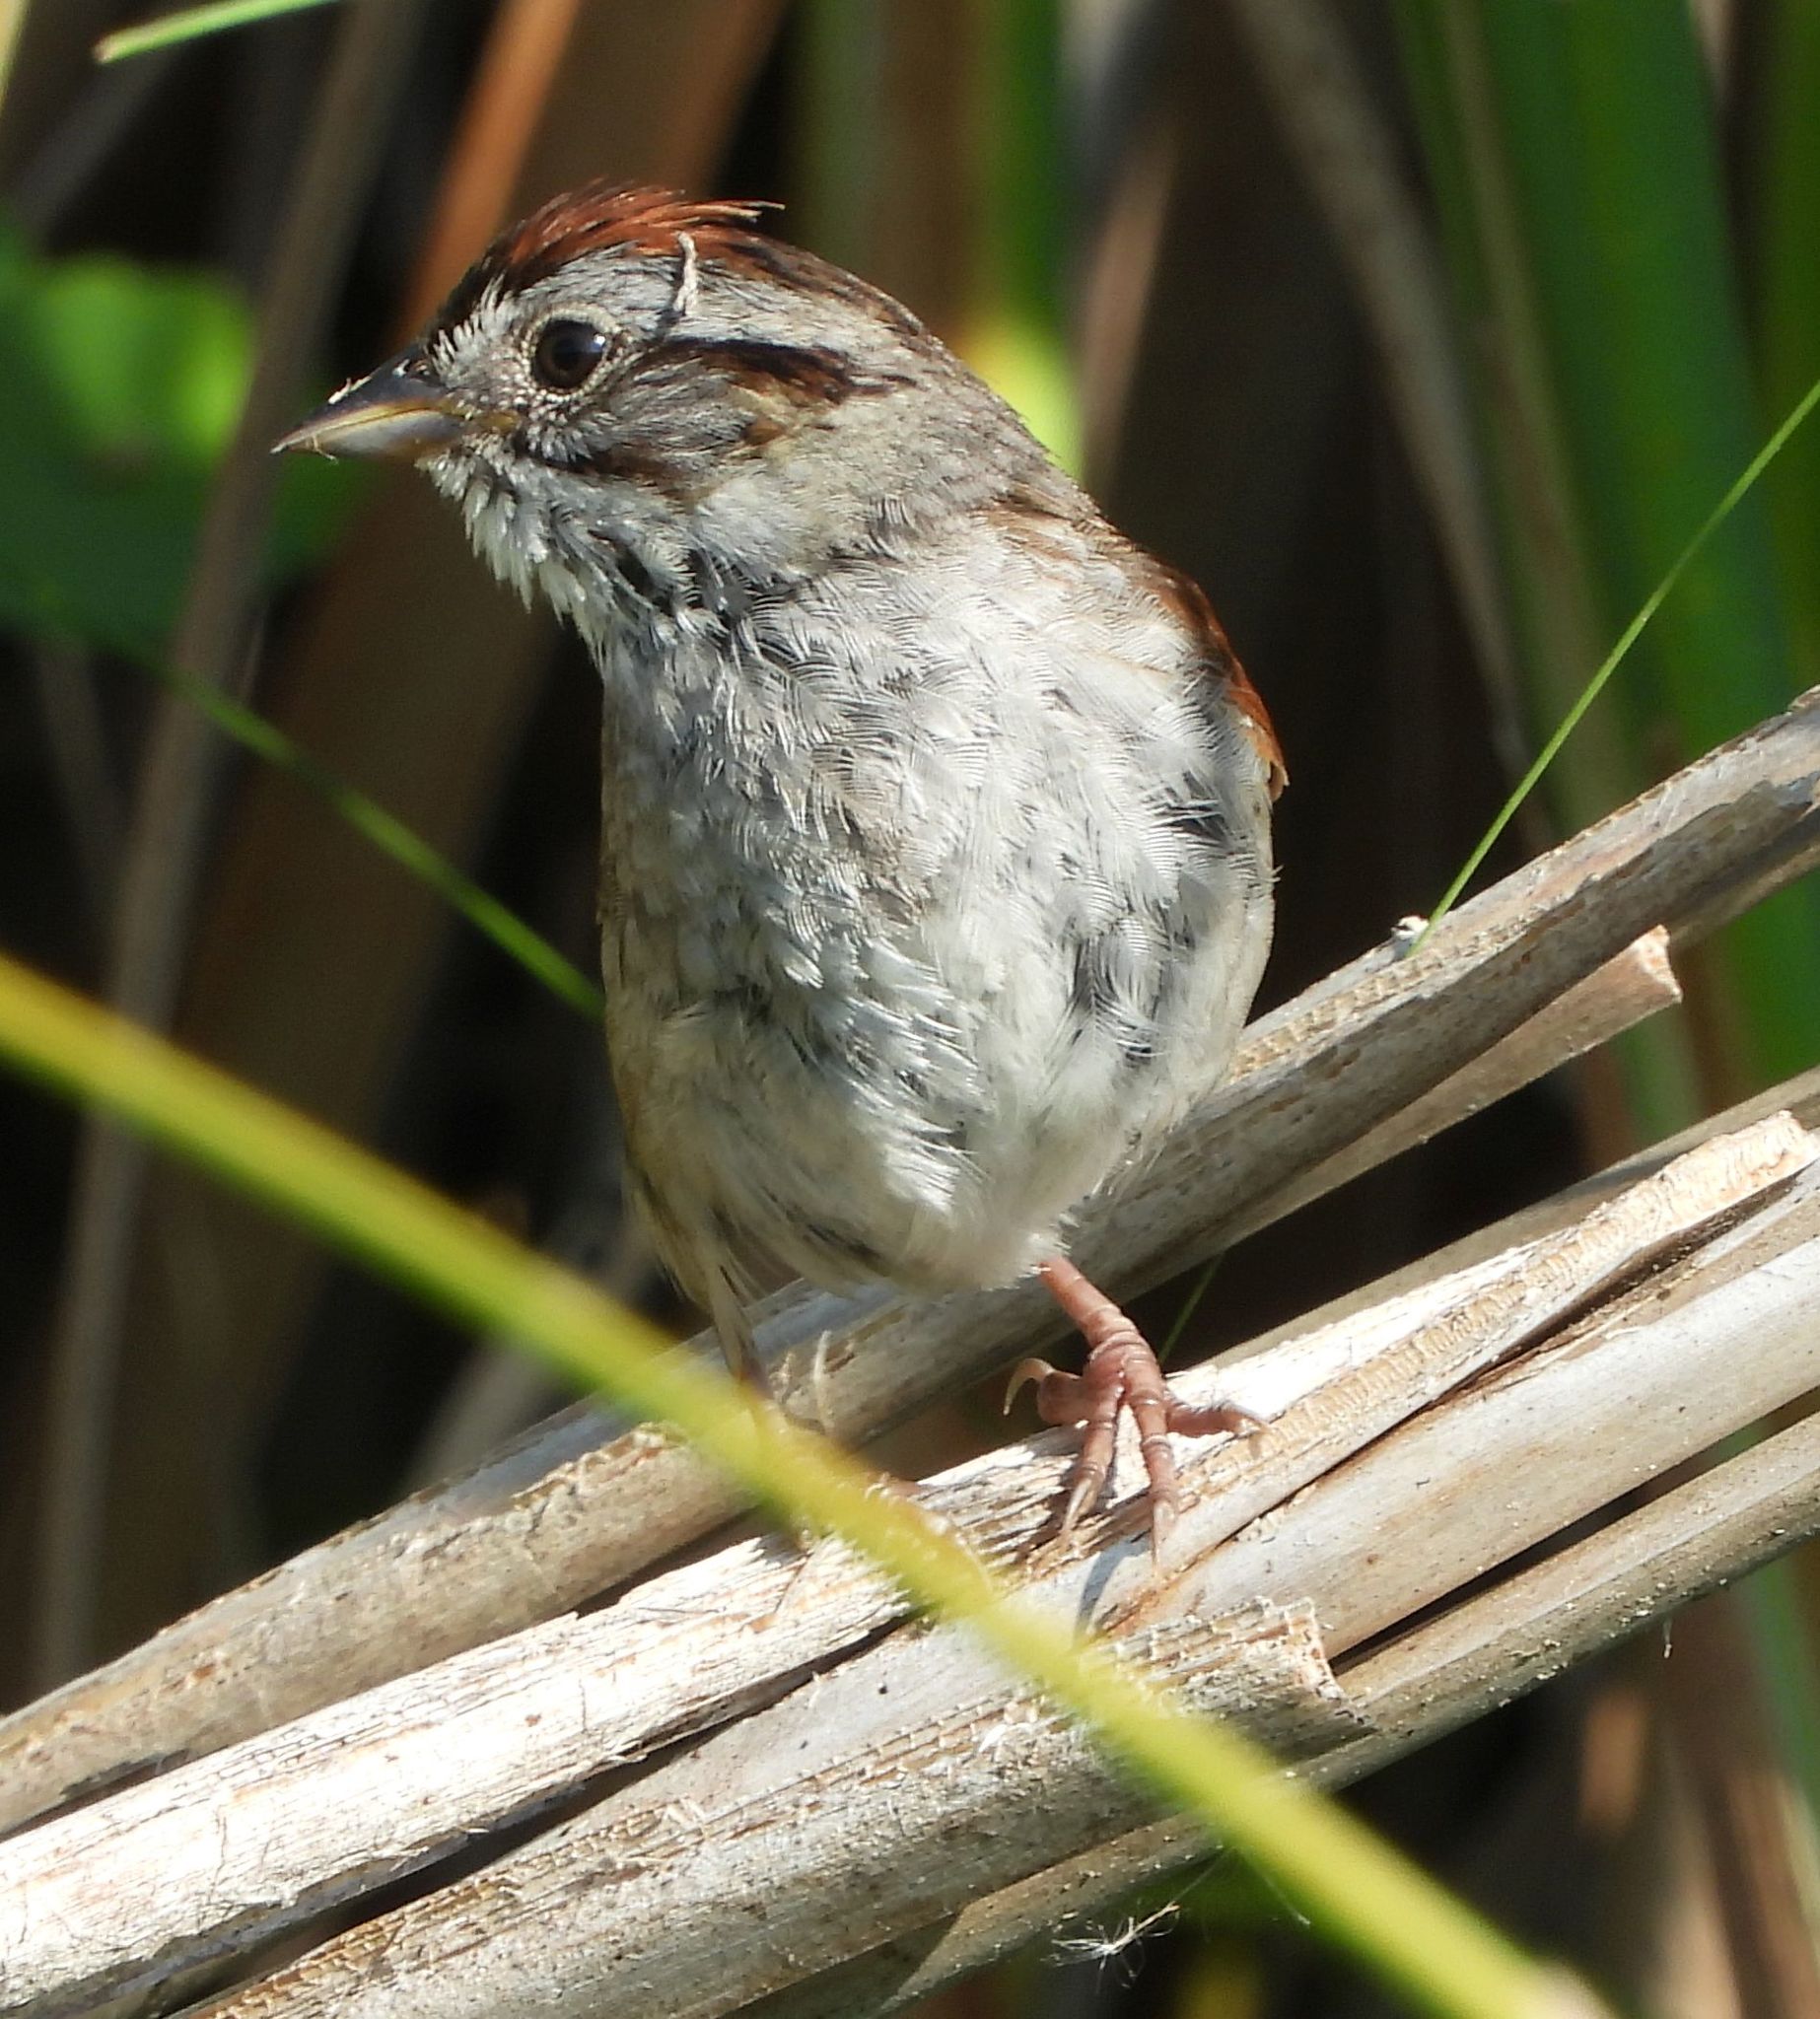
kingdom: Animalia
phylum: Chordata
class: Aves
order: Passeriformes
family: Passerellidae
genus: Melospiza
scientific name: Melospiza georgiana
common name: Swamp sparrow
